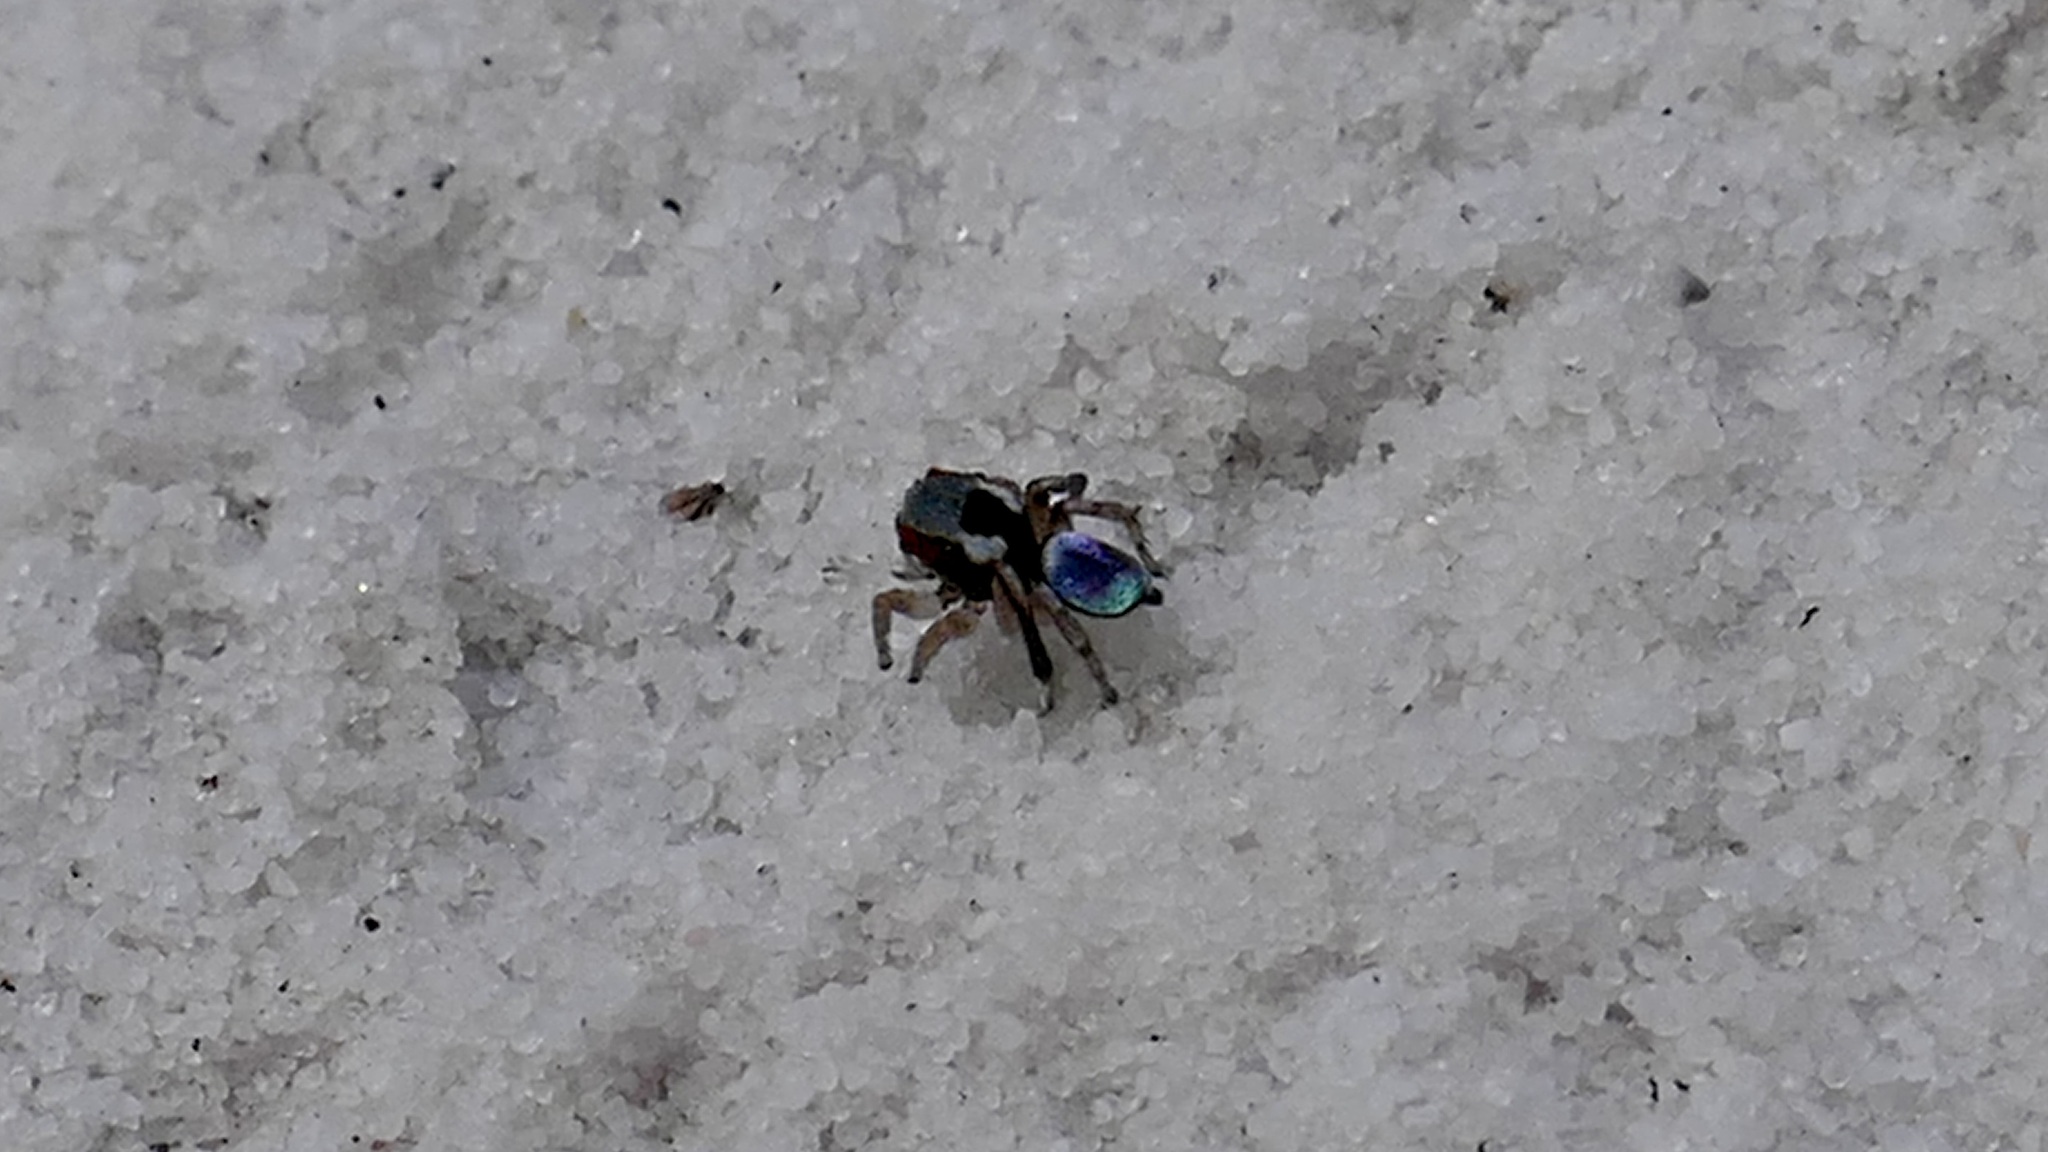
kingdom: Animalia
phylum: Arthropoda
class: Arachnida
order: Araneae
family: Salticidae
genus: Maratus
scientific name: Maratus anomalus
